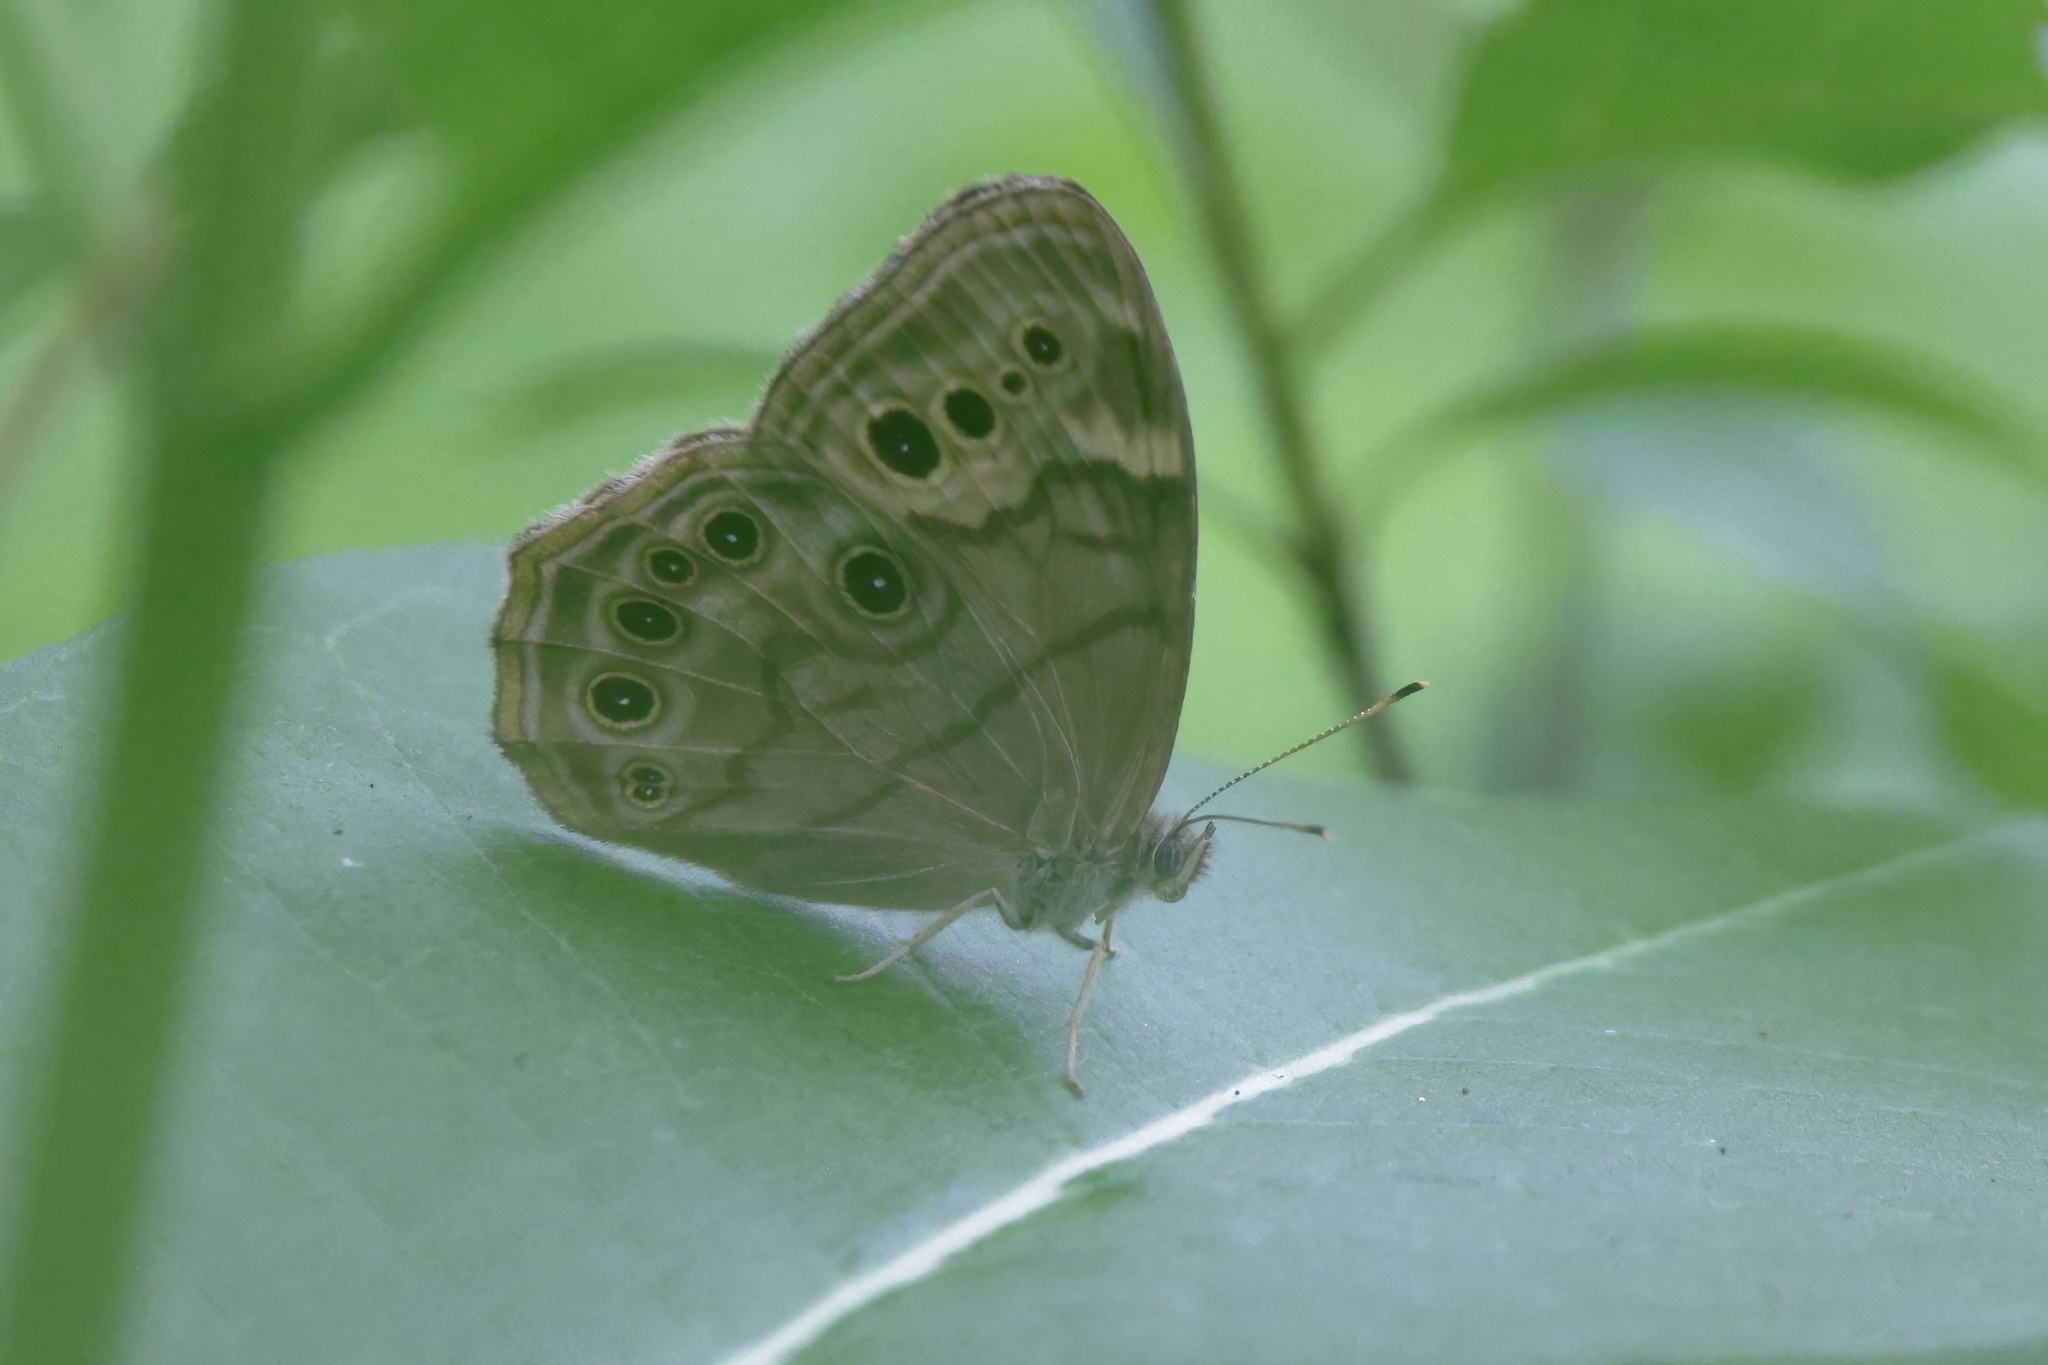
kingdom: Animalia
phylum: Arthropoda
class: Insecta
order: Lepidoptera
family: Nymphalidae
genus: Lethe
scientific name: Lethe anthedon
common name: Northern pearly-eye
